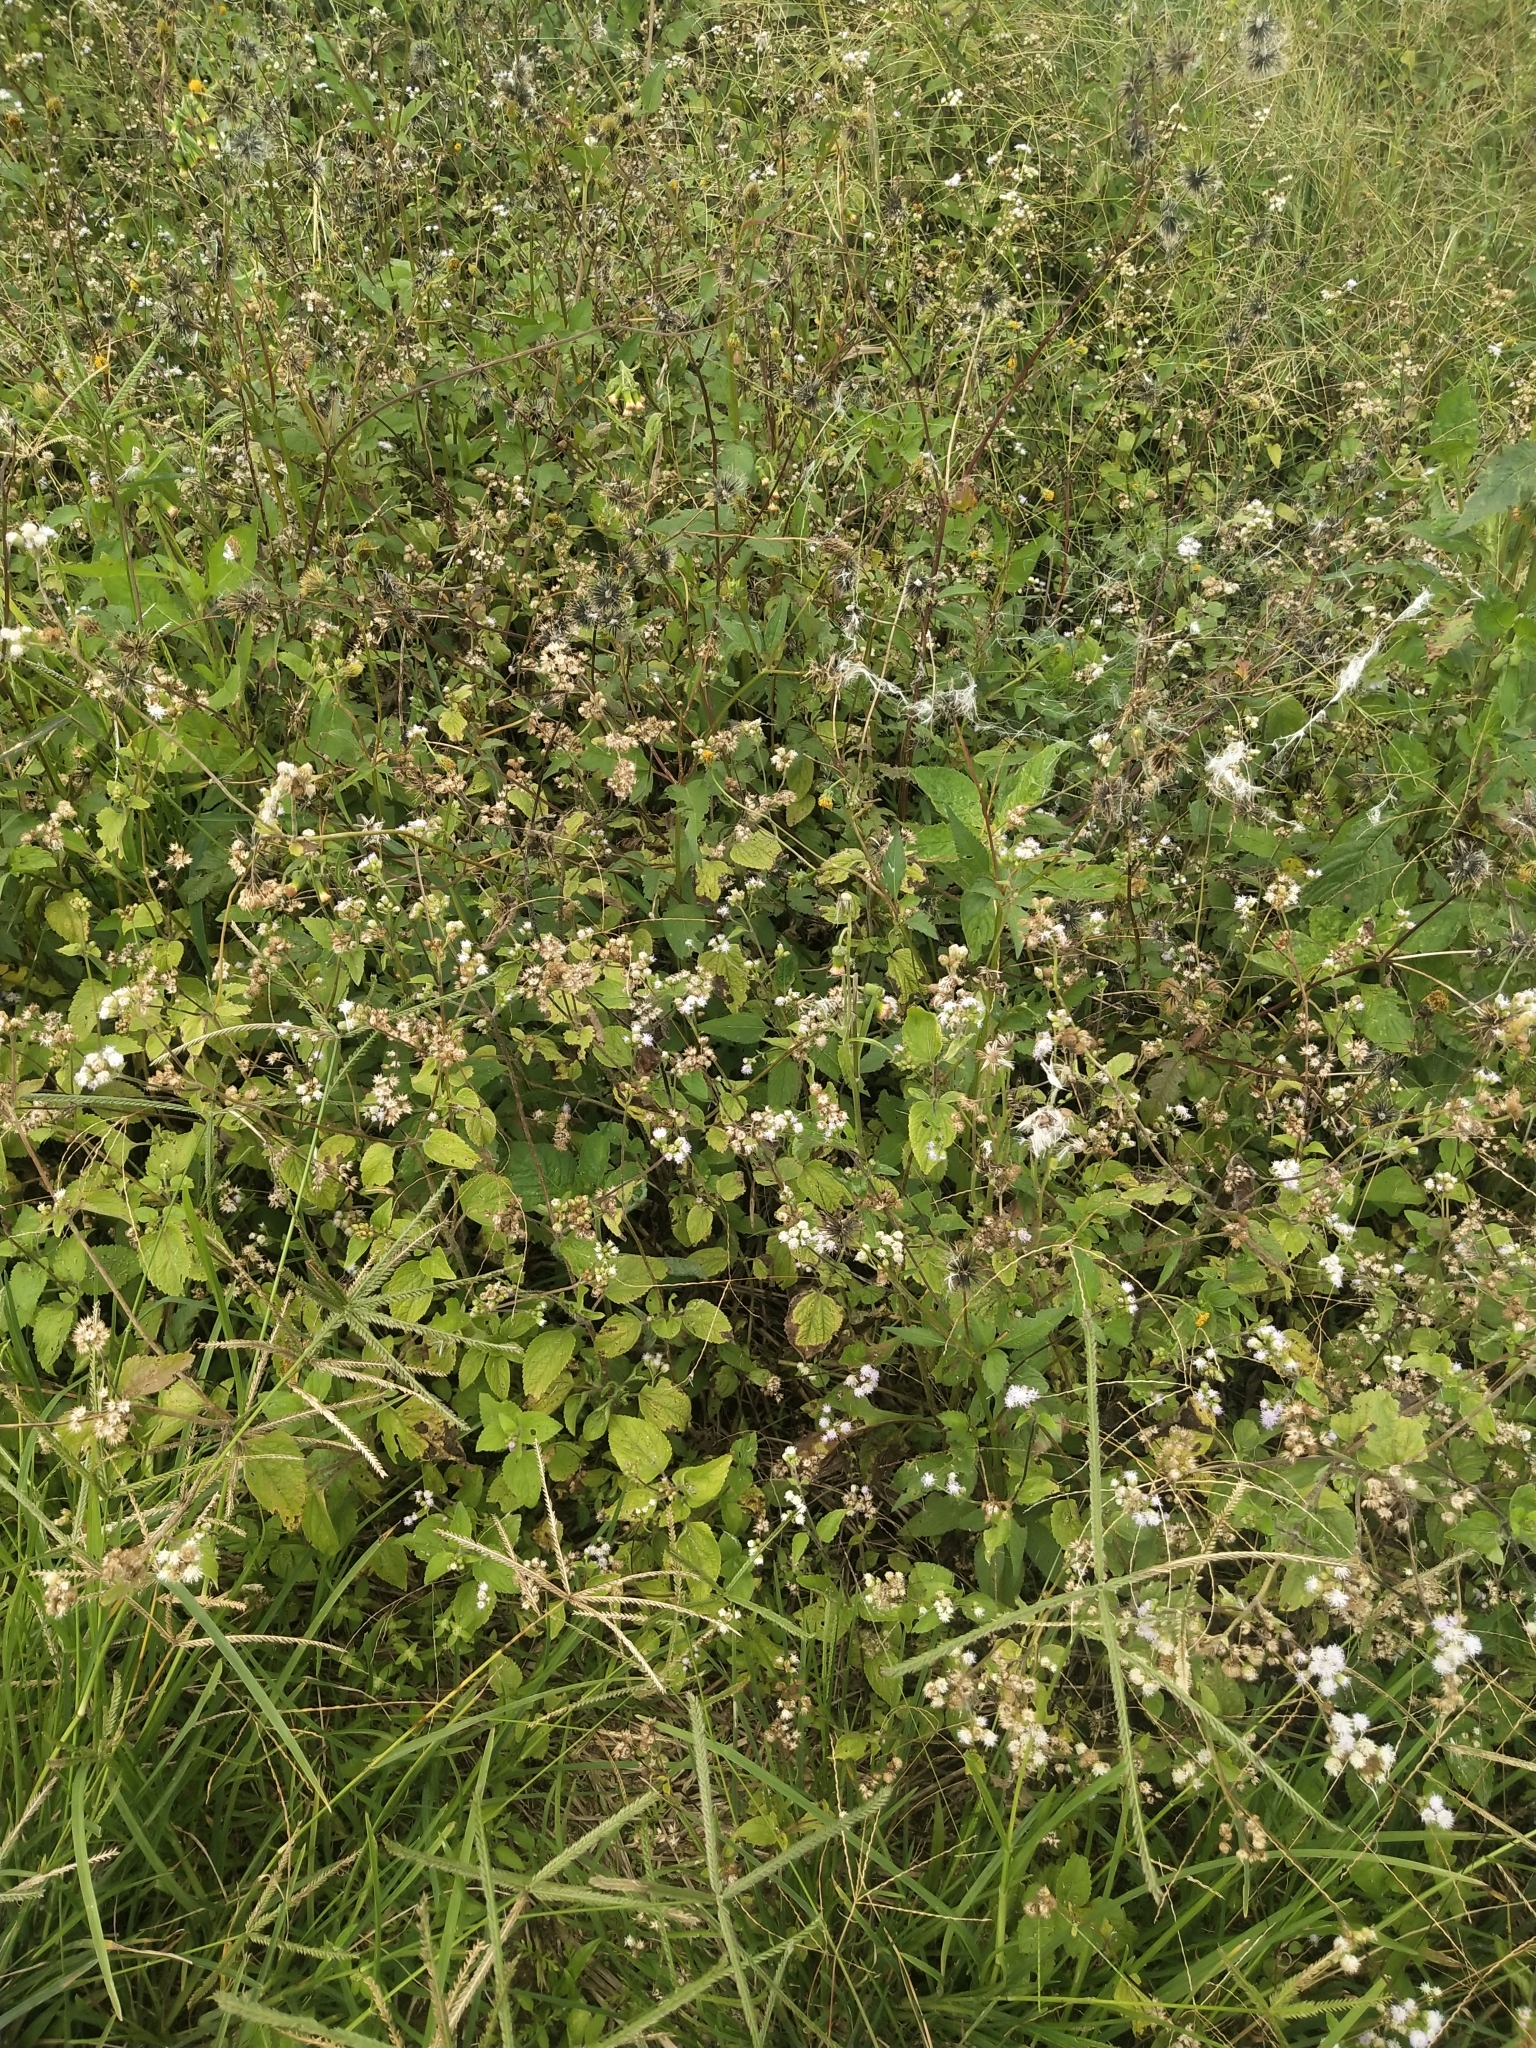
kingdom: Plantae
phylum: Tracheophyta
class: Magnoliopsida
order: Asterales
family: Asteraceae
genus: Ageratum
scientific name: Ageratum conyzoides
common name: Tropical whiteweed
